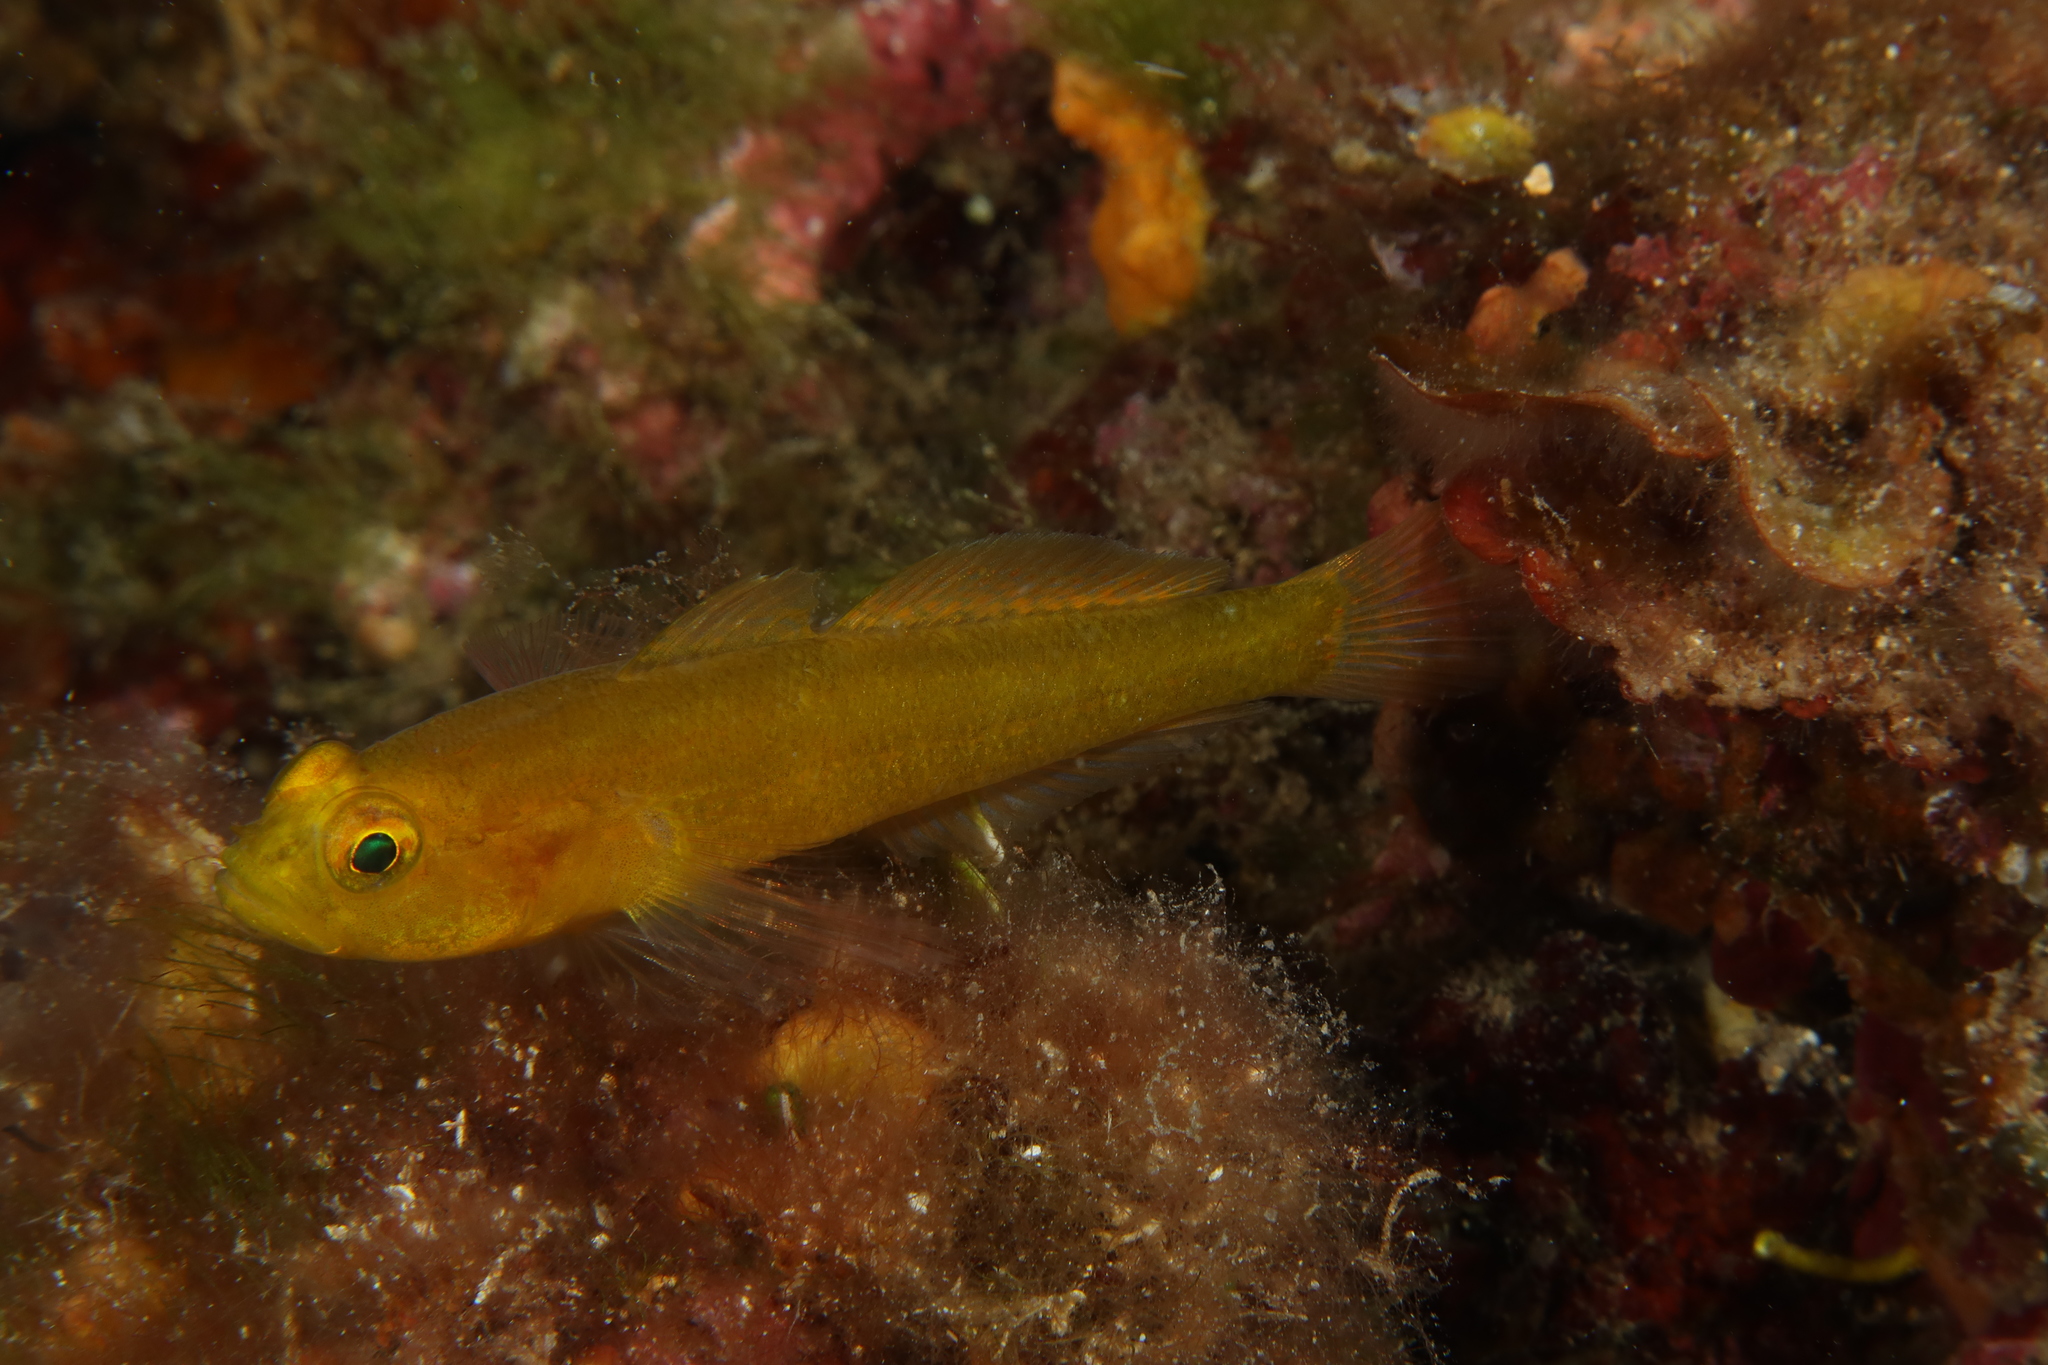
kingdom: Animalia
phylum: Chordata
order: Perciformes
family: Gobiidae
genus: Gobius
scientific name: Gobius auratus
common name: Golden goby
